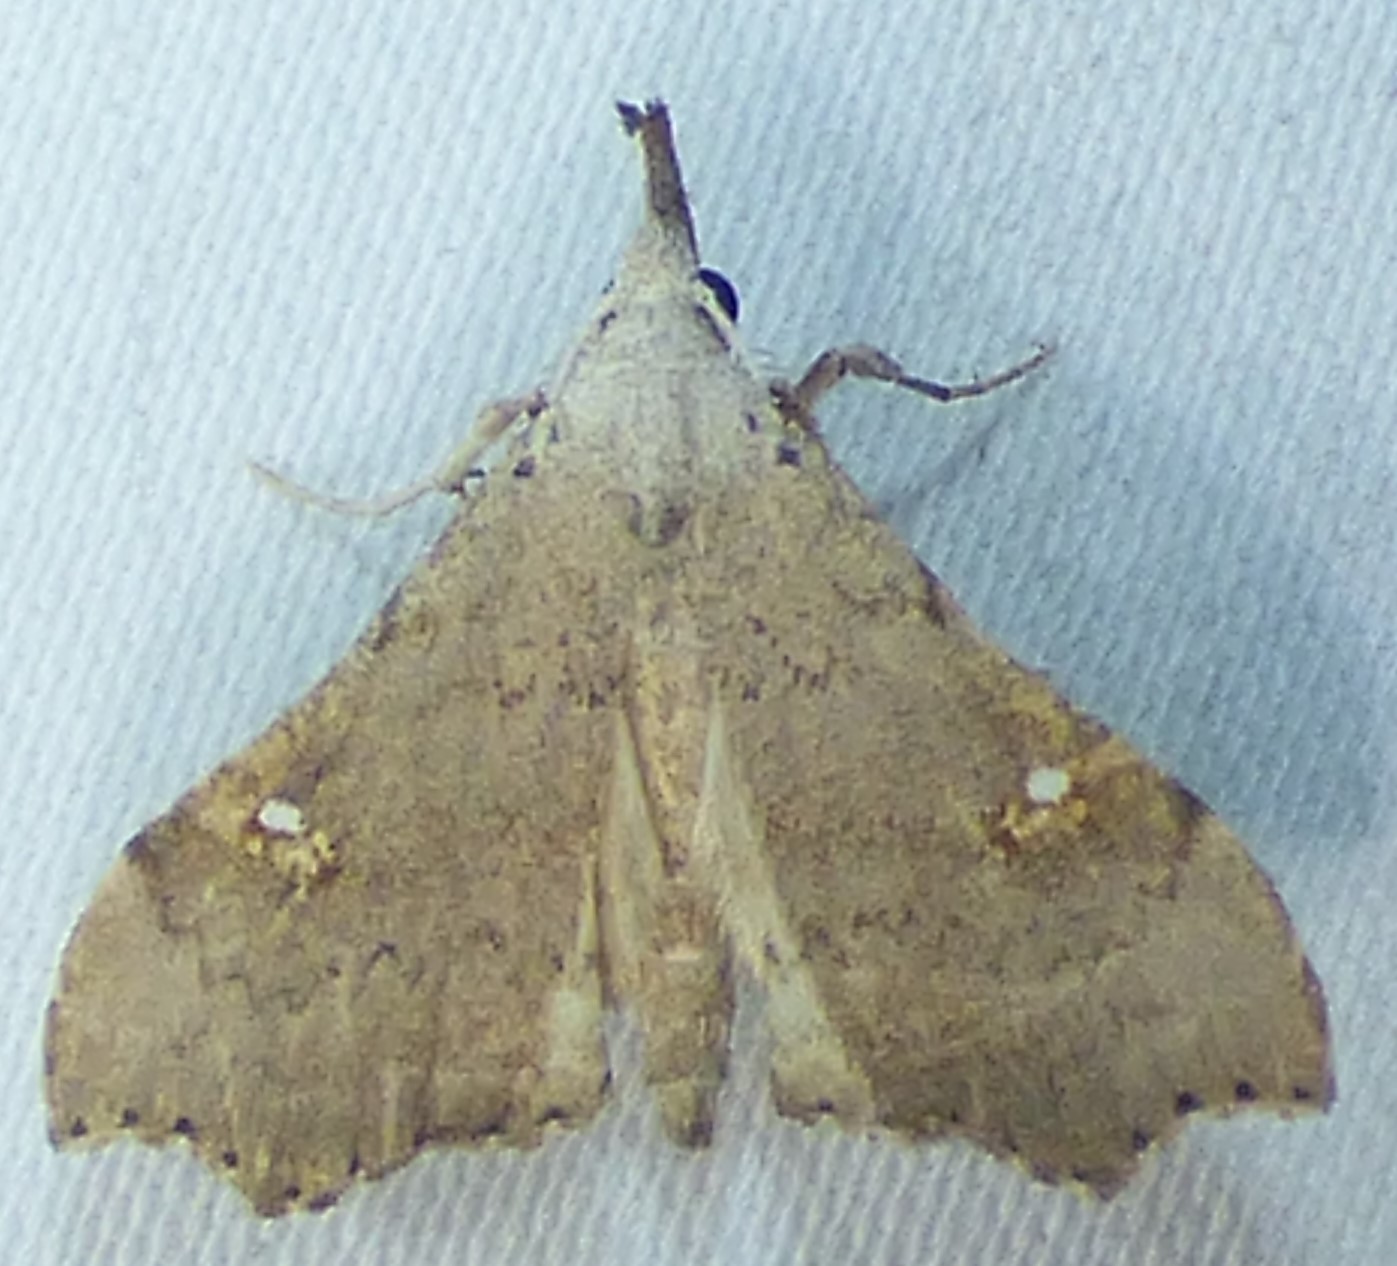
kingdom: Animalia
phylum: Arthropoda
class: Insecta
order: Lepidoptera
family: Erebidae
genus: Redectis
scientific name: Redectis vitrea
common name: White-spotted redectis
